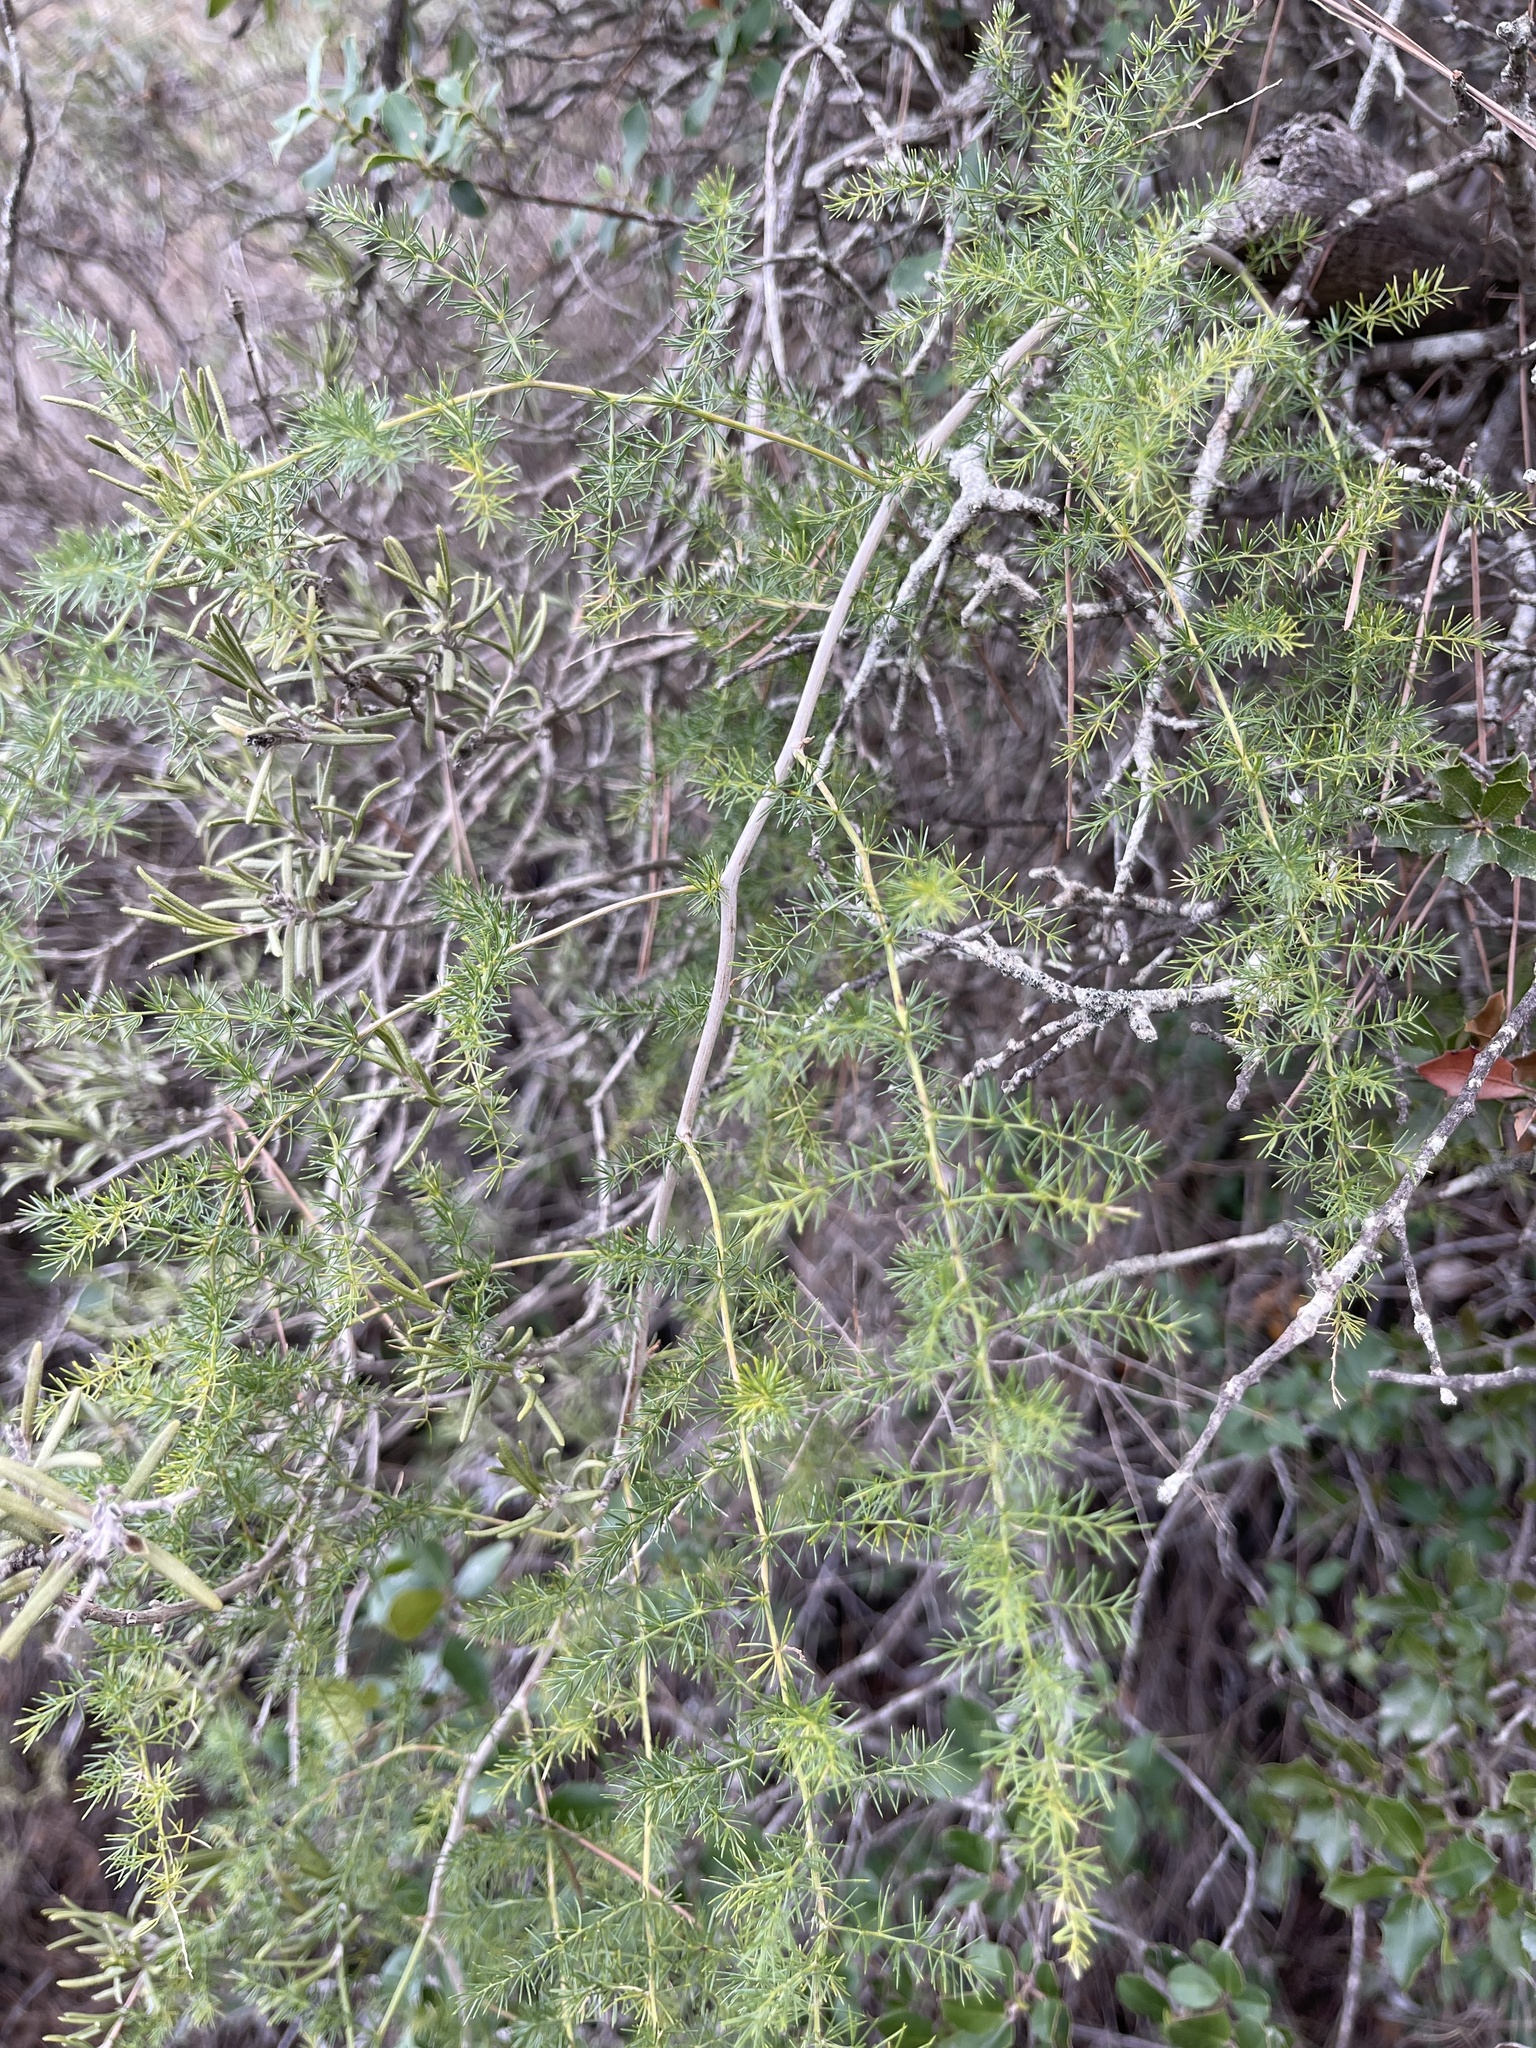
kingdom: Plantae
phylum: Tracheophyta
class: Liliopsida
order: Asparagales
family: Asparagaceae
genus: Asparagus
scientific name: Asparagus acutifolius
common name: Wild asparagus
